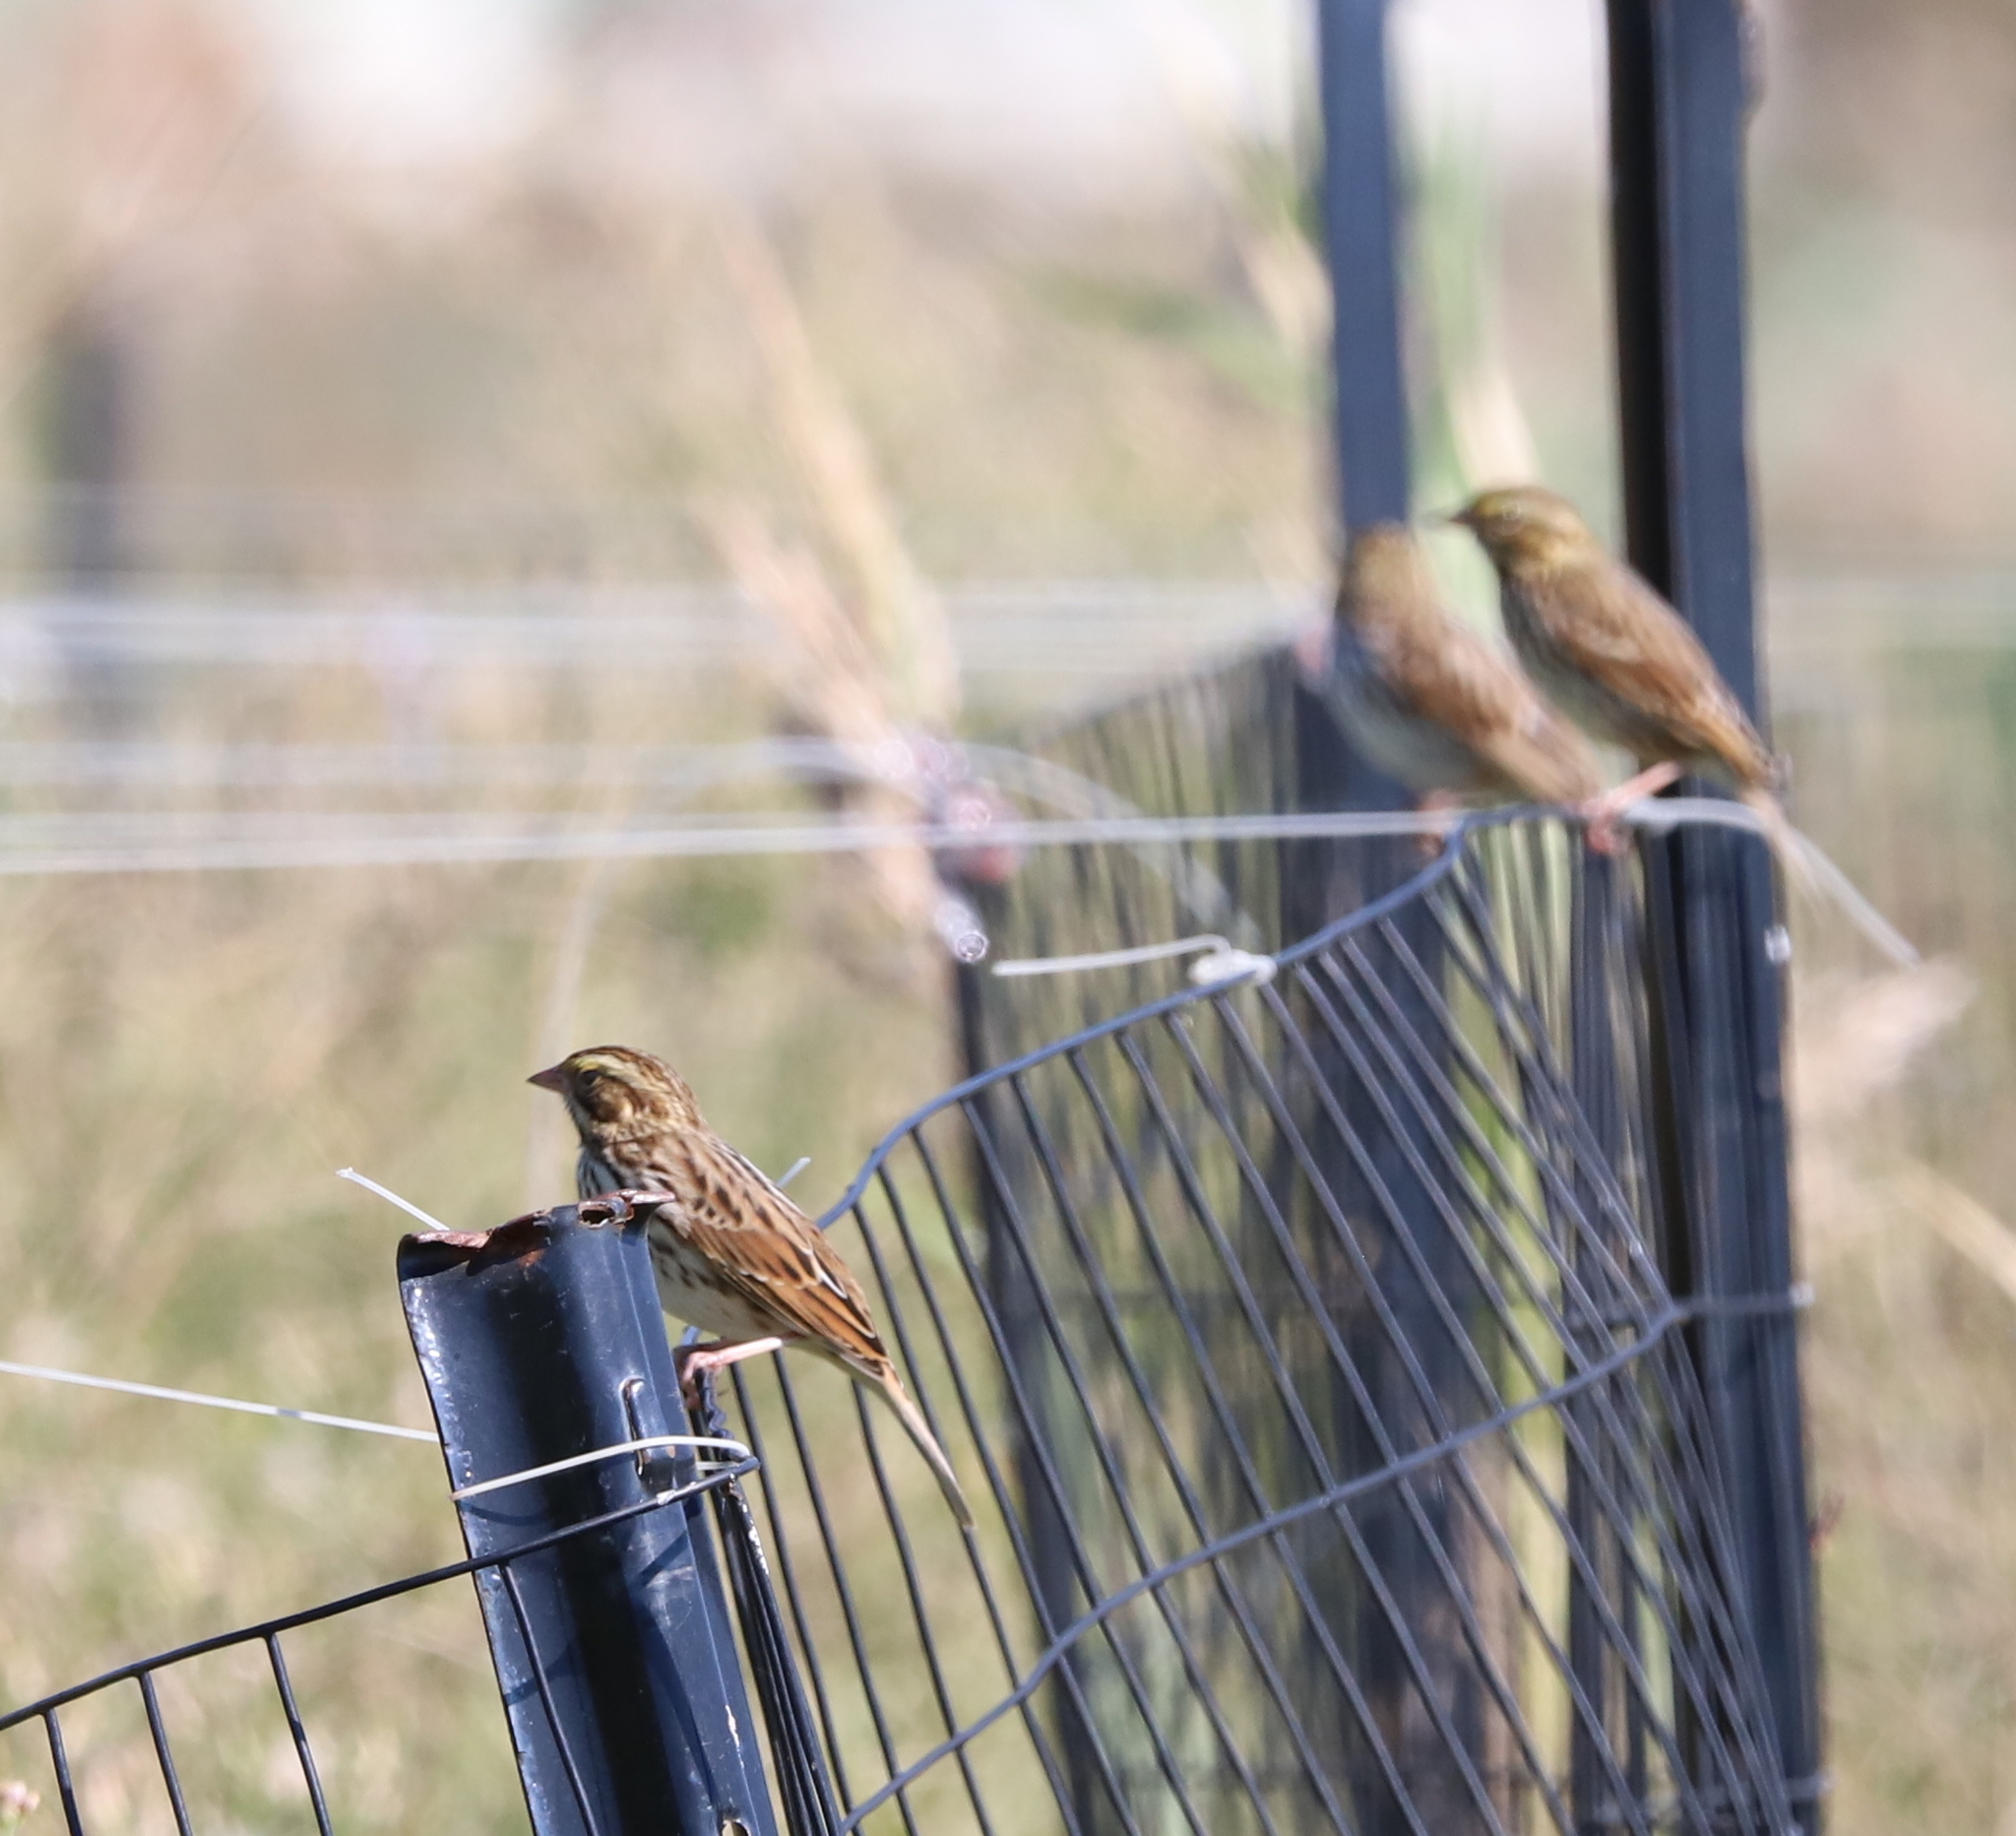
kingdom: Animalia
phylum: Chordata
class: Aves
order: Passeriformes
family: Passerellidae
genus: Passerculus
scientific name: Passerculus sandwichensis
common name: Savannah sparrow
